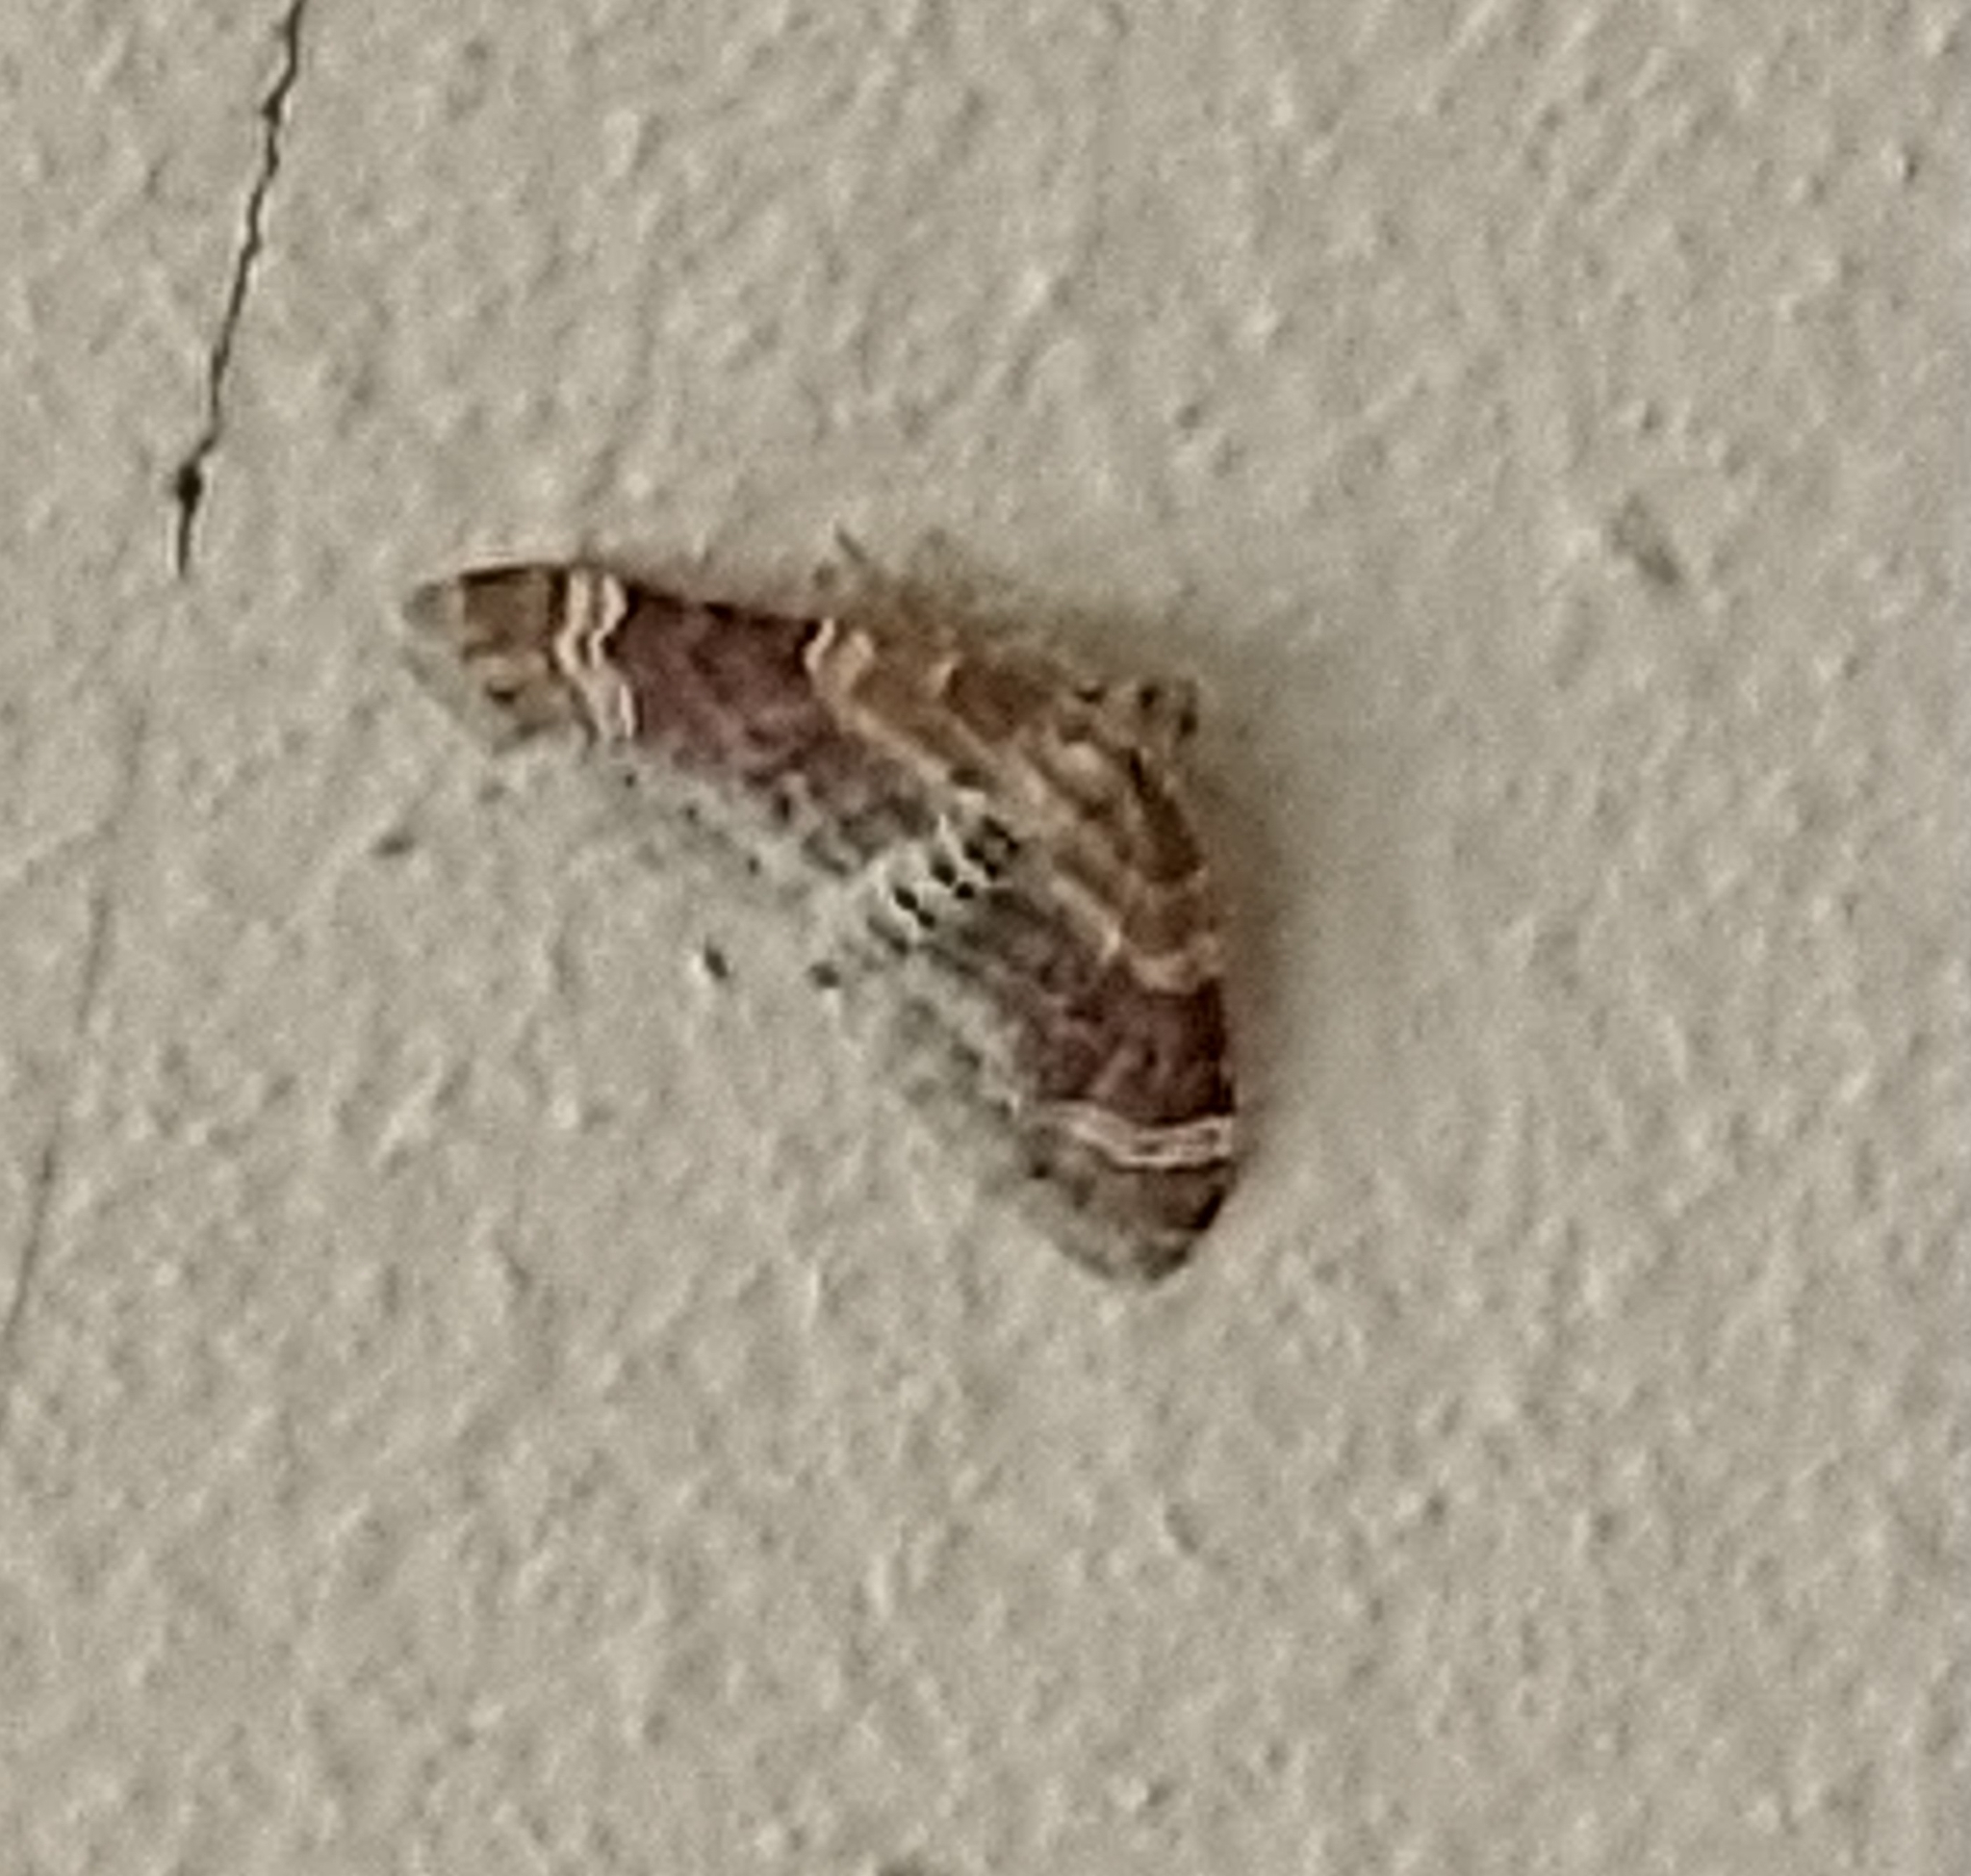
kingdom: Animalia
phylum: Arthropoda
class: Insecta
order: Lepidoptera
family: Geometridae
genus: Xanthorhoe
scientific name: Xanthorhoe spadicearia
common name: Red twin-spot carpet
